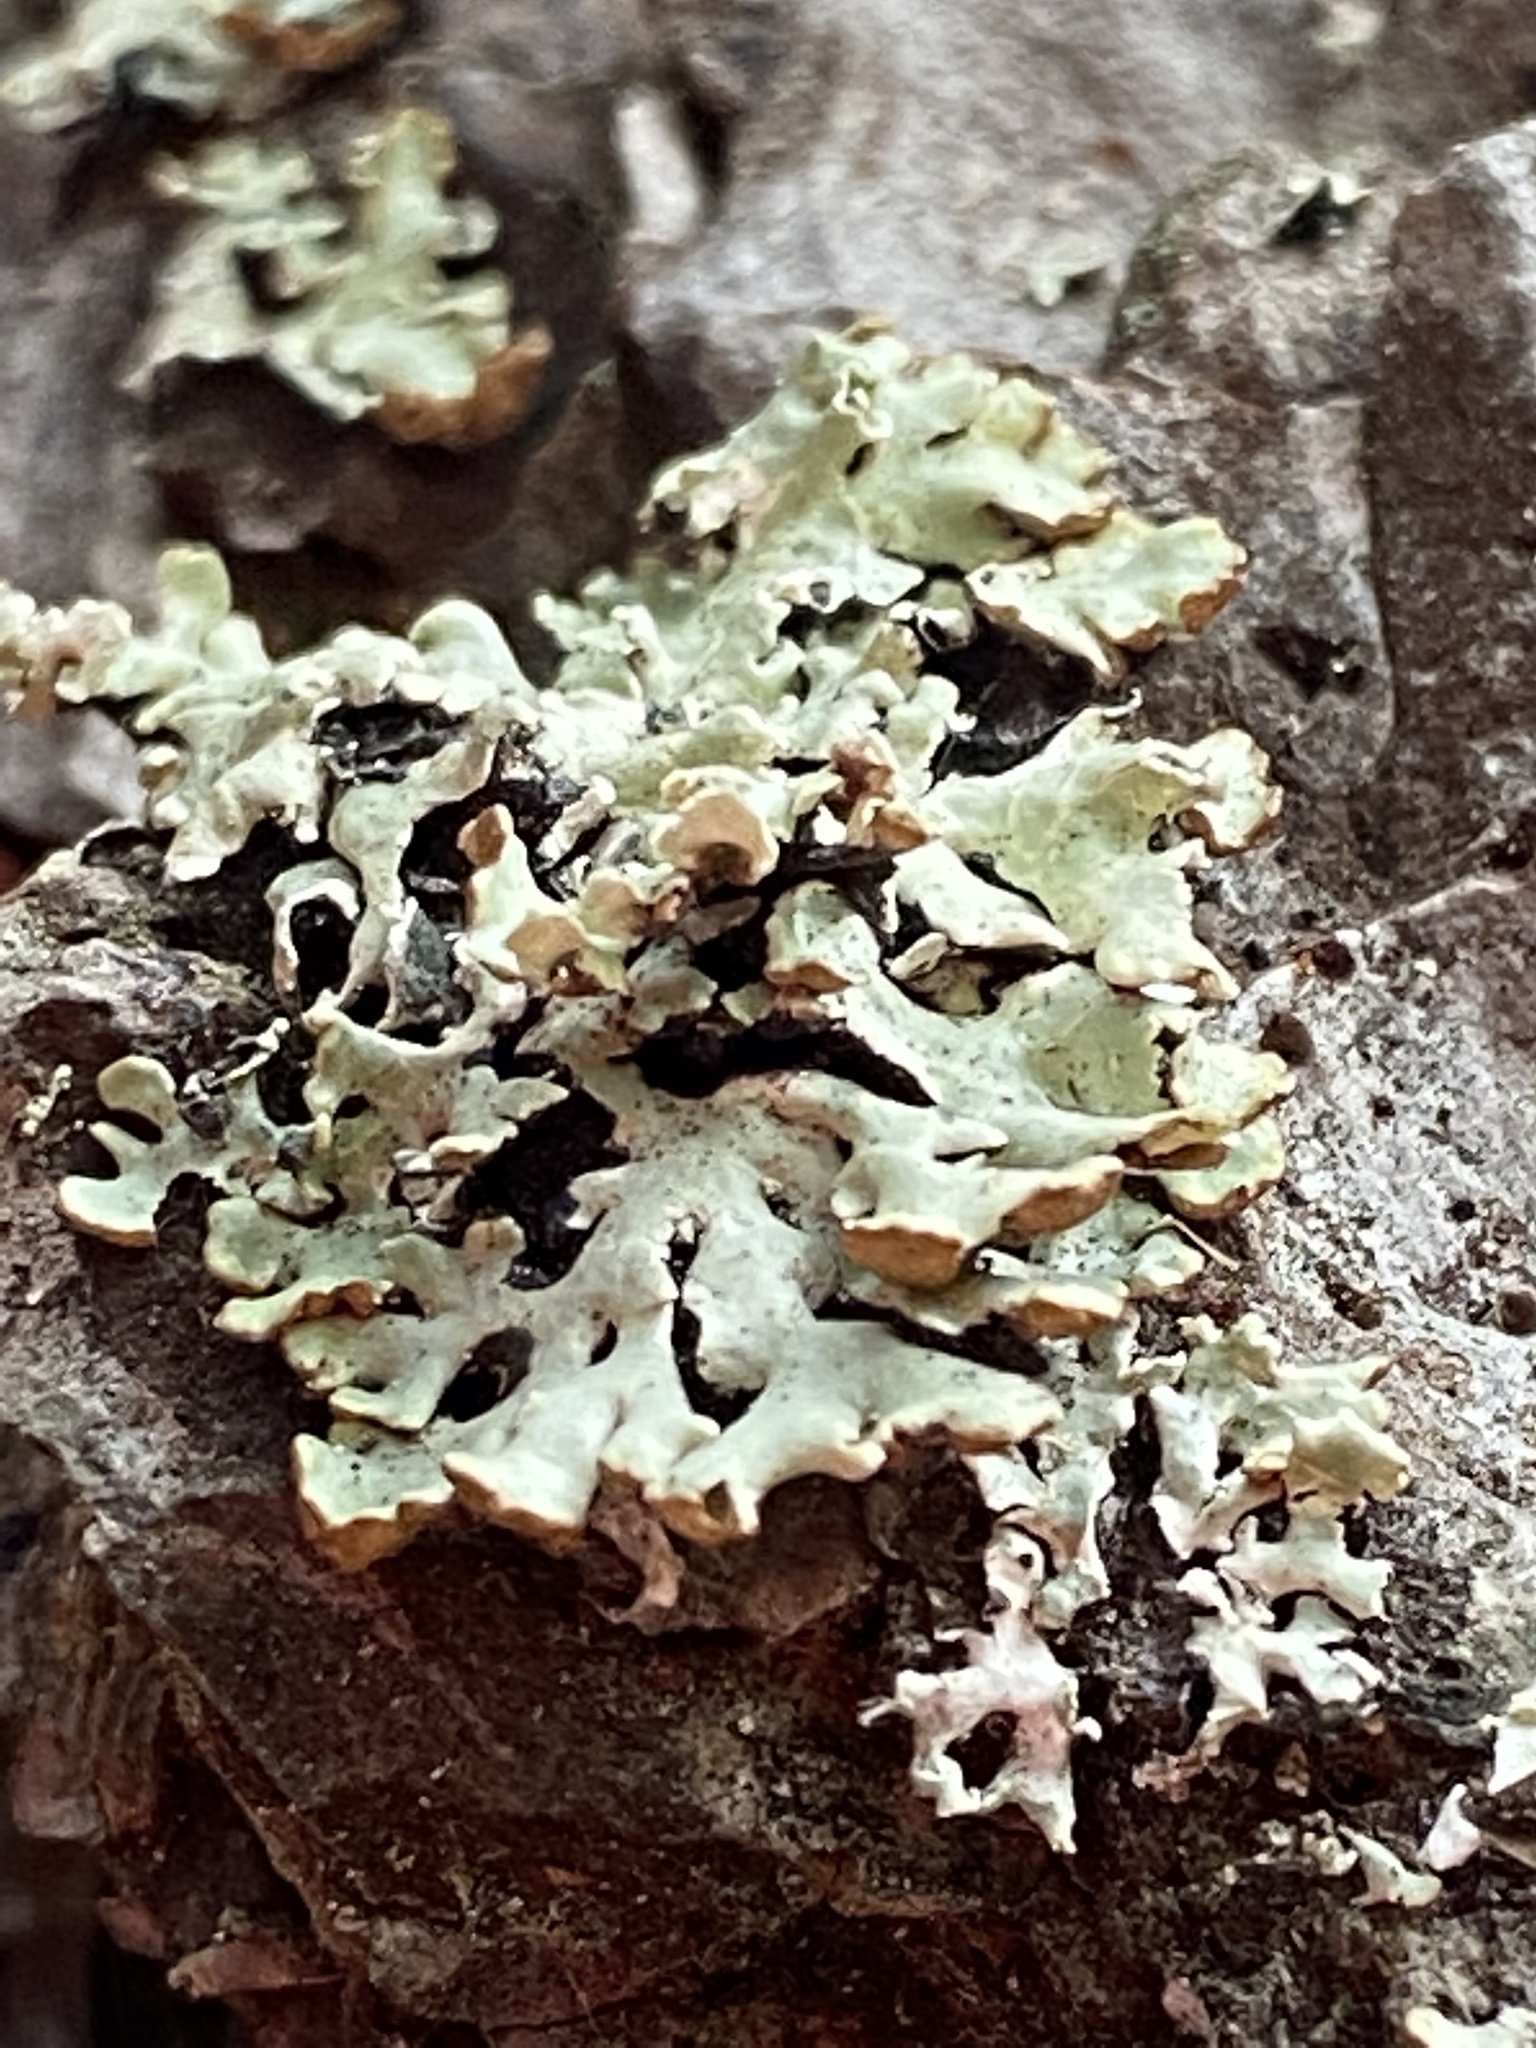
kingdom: Fungi
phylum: Ascomycota
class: Lecanoromycetes
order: Lecanorales
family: Parmeliaceae
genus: Hypogymnia
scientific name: Hypogymnia physodes
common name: Dark crottle
